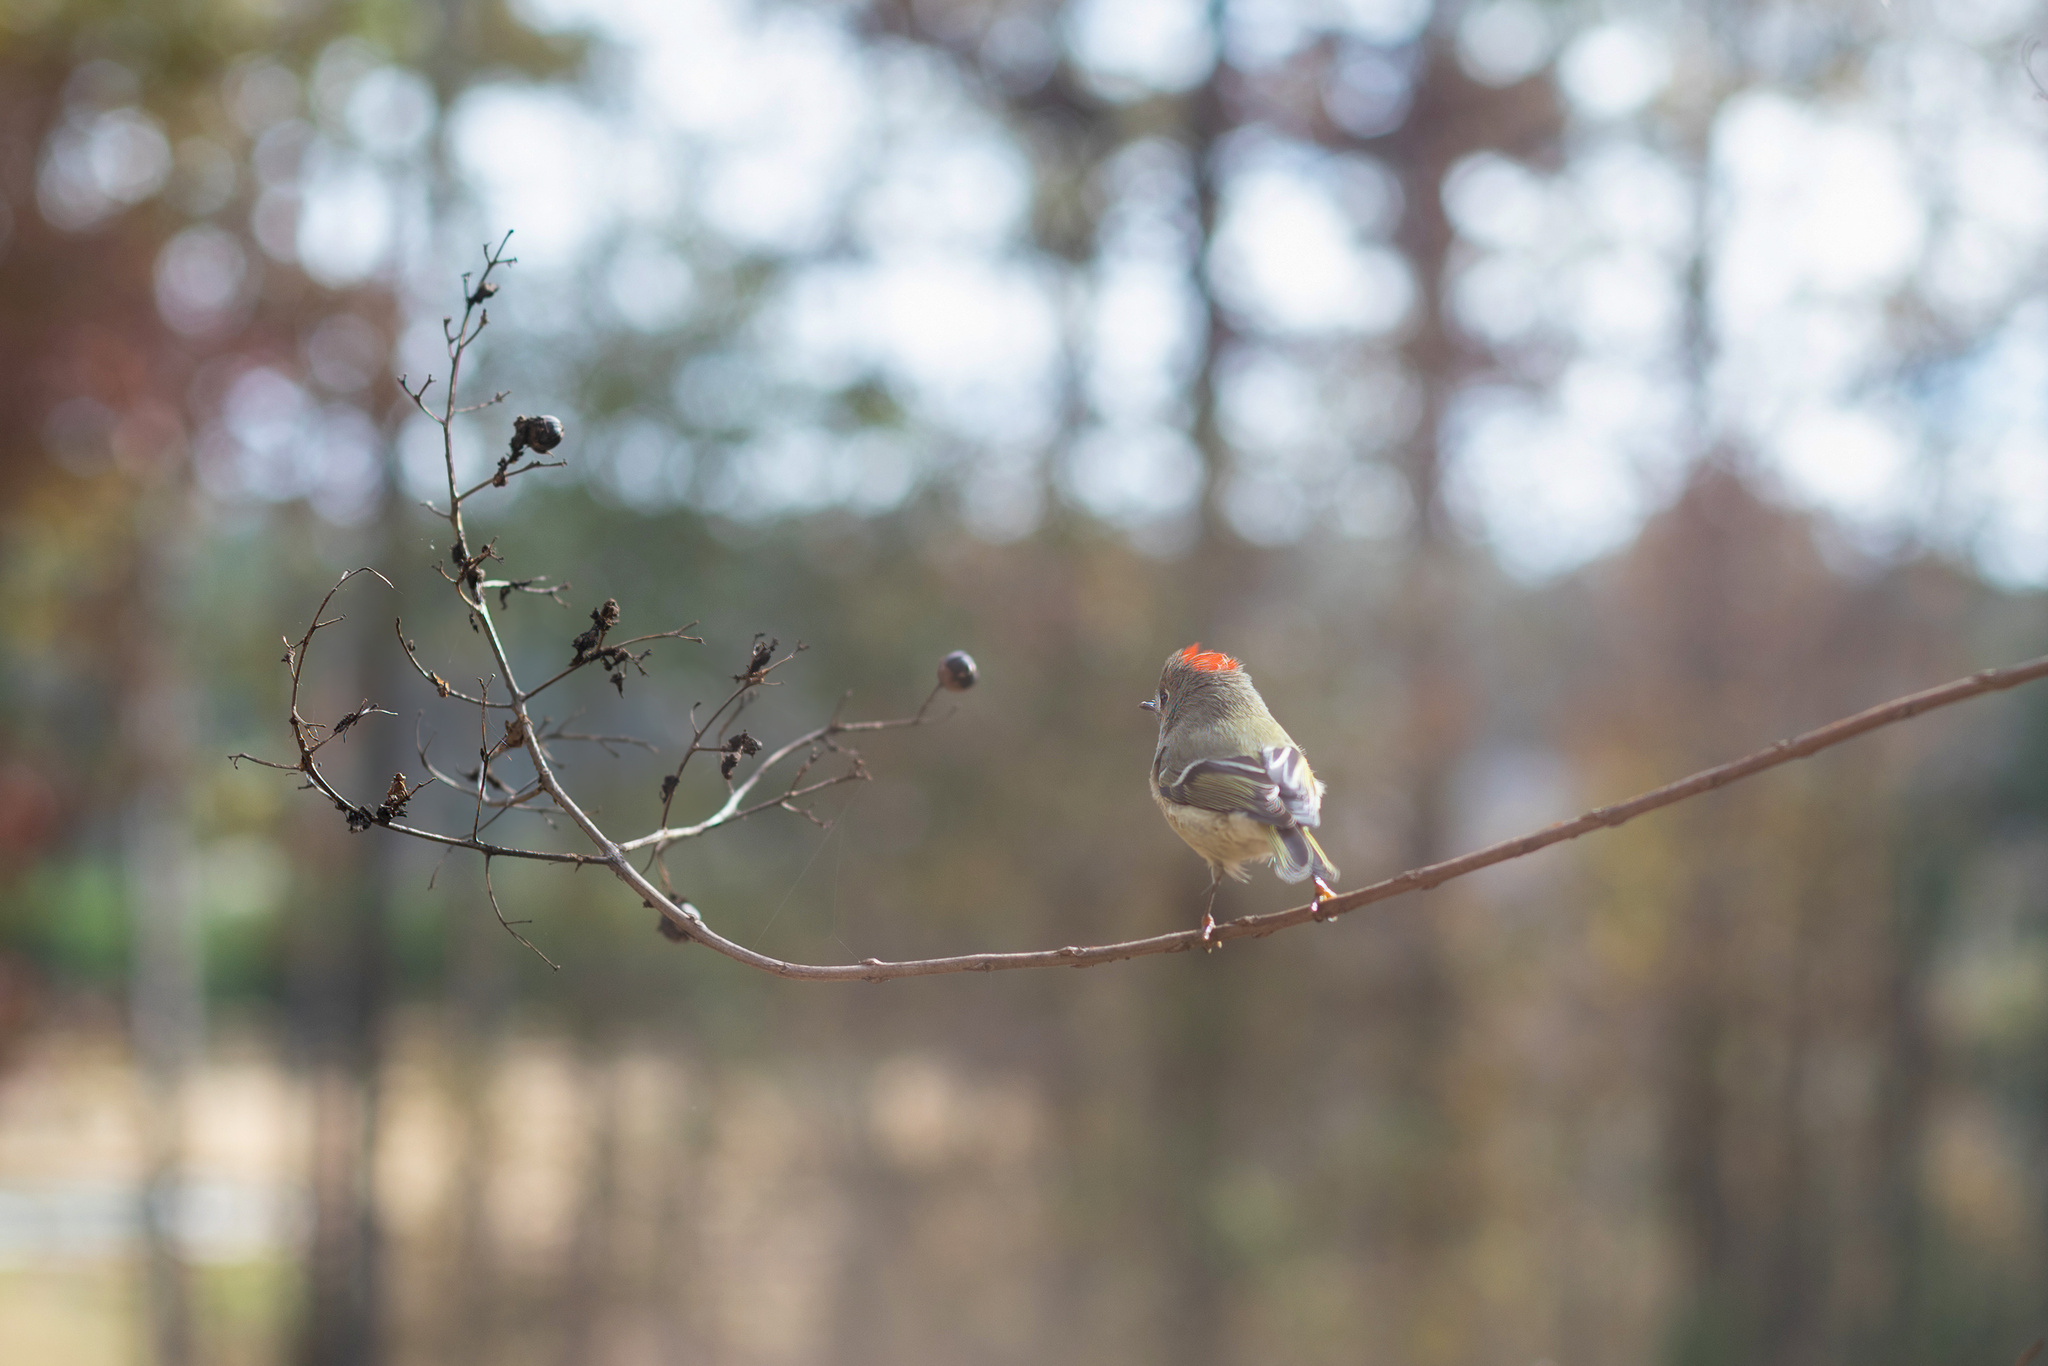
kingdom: Animalia
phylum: Chordata
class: Aves
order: Passeriformes
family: Regulidae
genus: Regulus
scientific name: Regulus calendula
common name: Ruby-crowned kinglet
